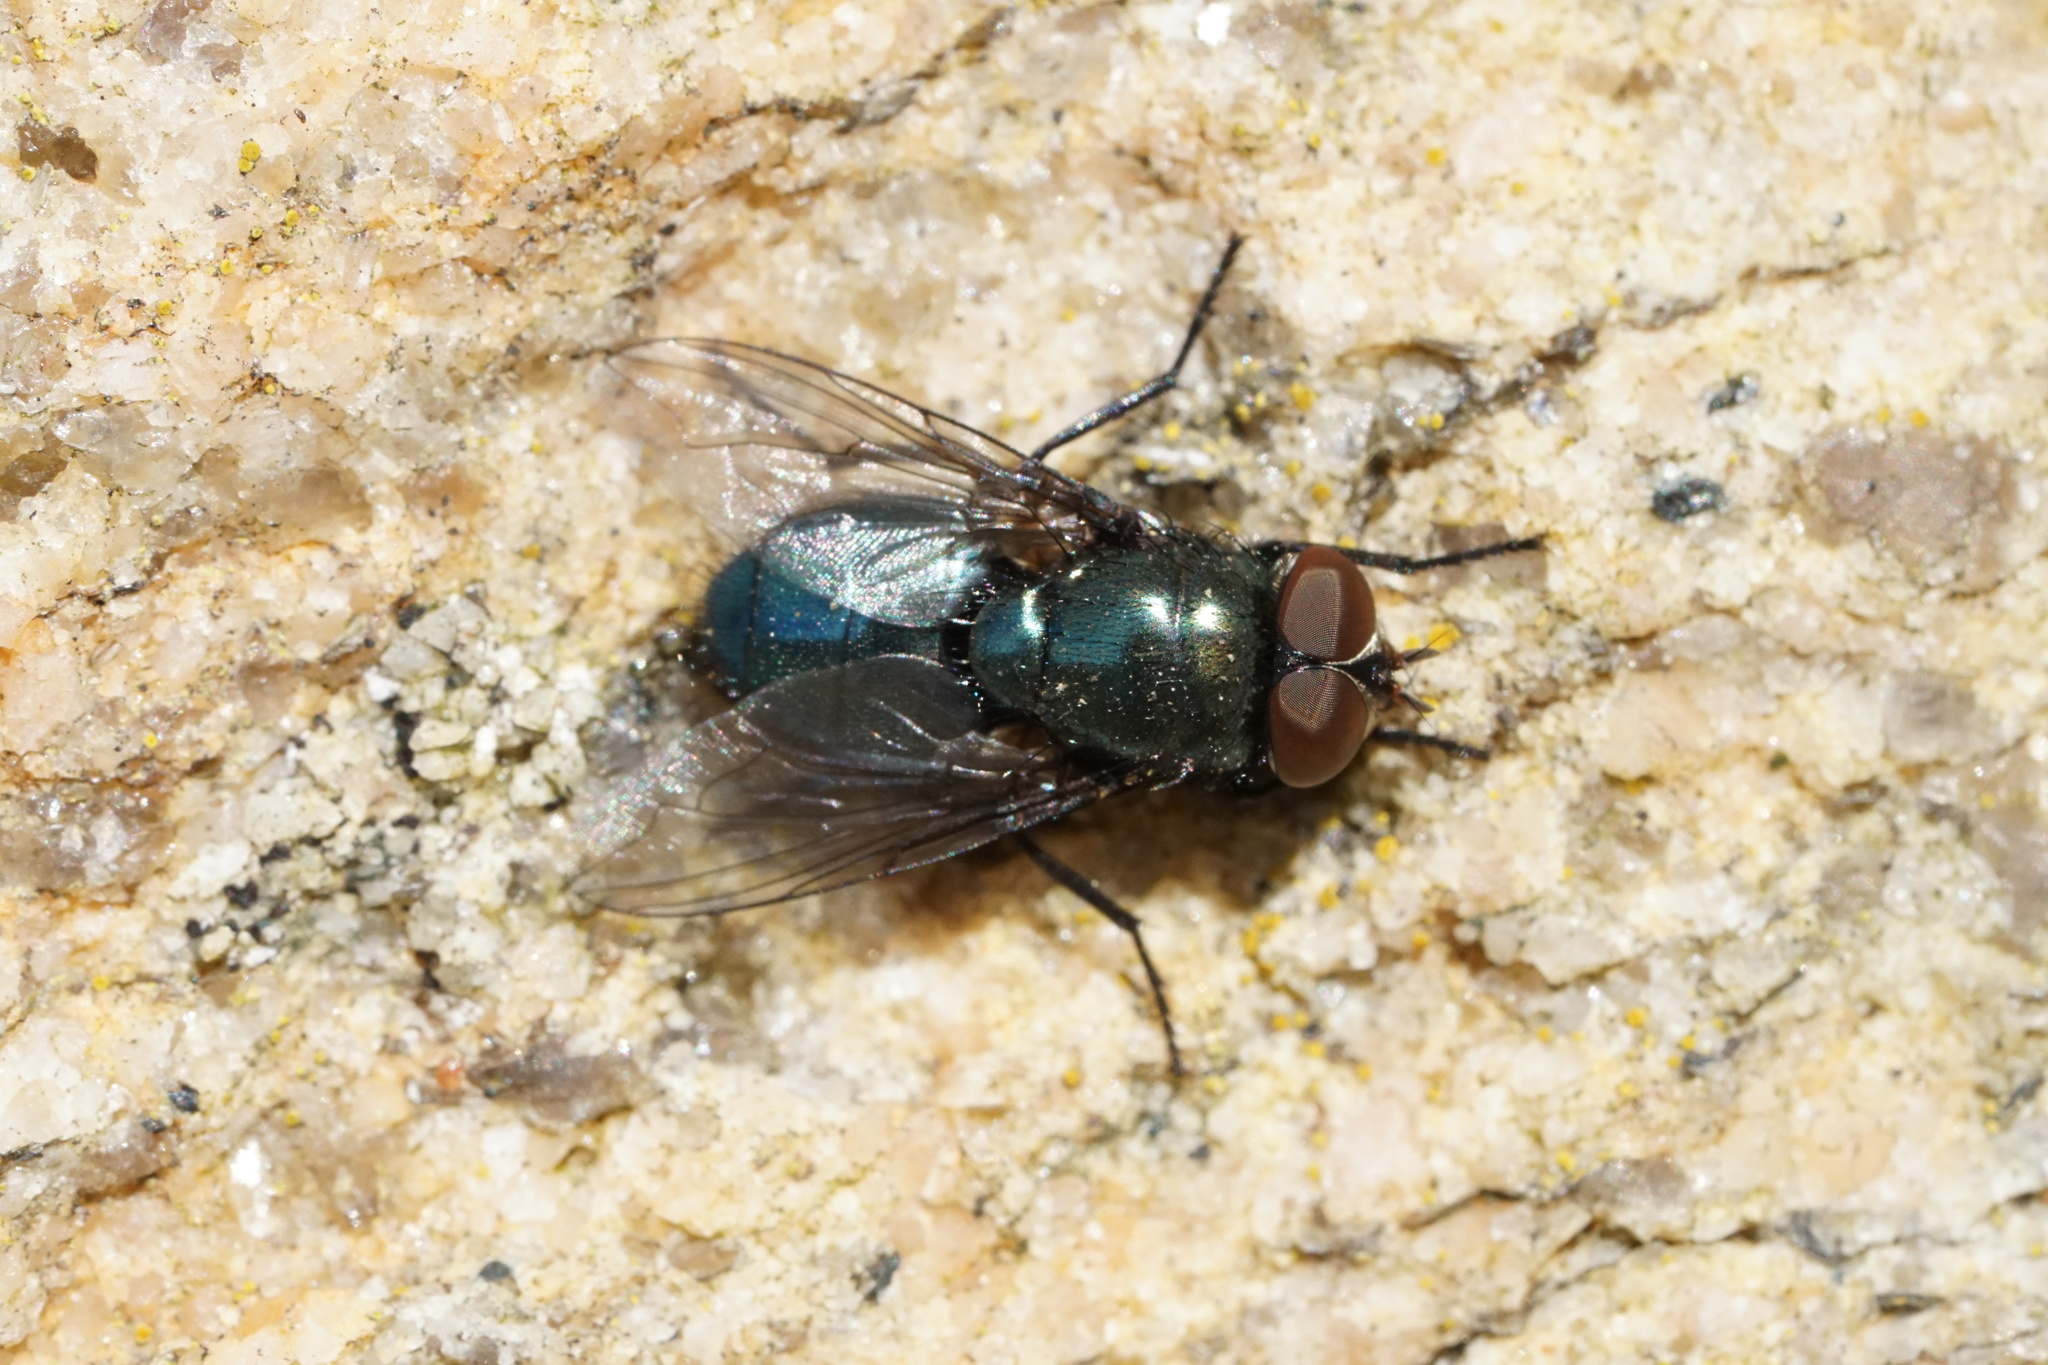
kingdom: Animalia
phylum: Arthropoda
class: Insecta
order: Diptera
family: Calliphoridae
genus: Phormia
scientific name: Phormia regina
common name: Black blow fly
